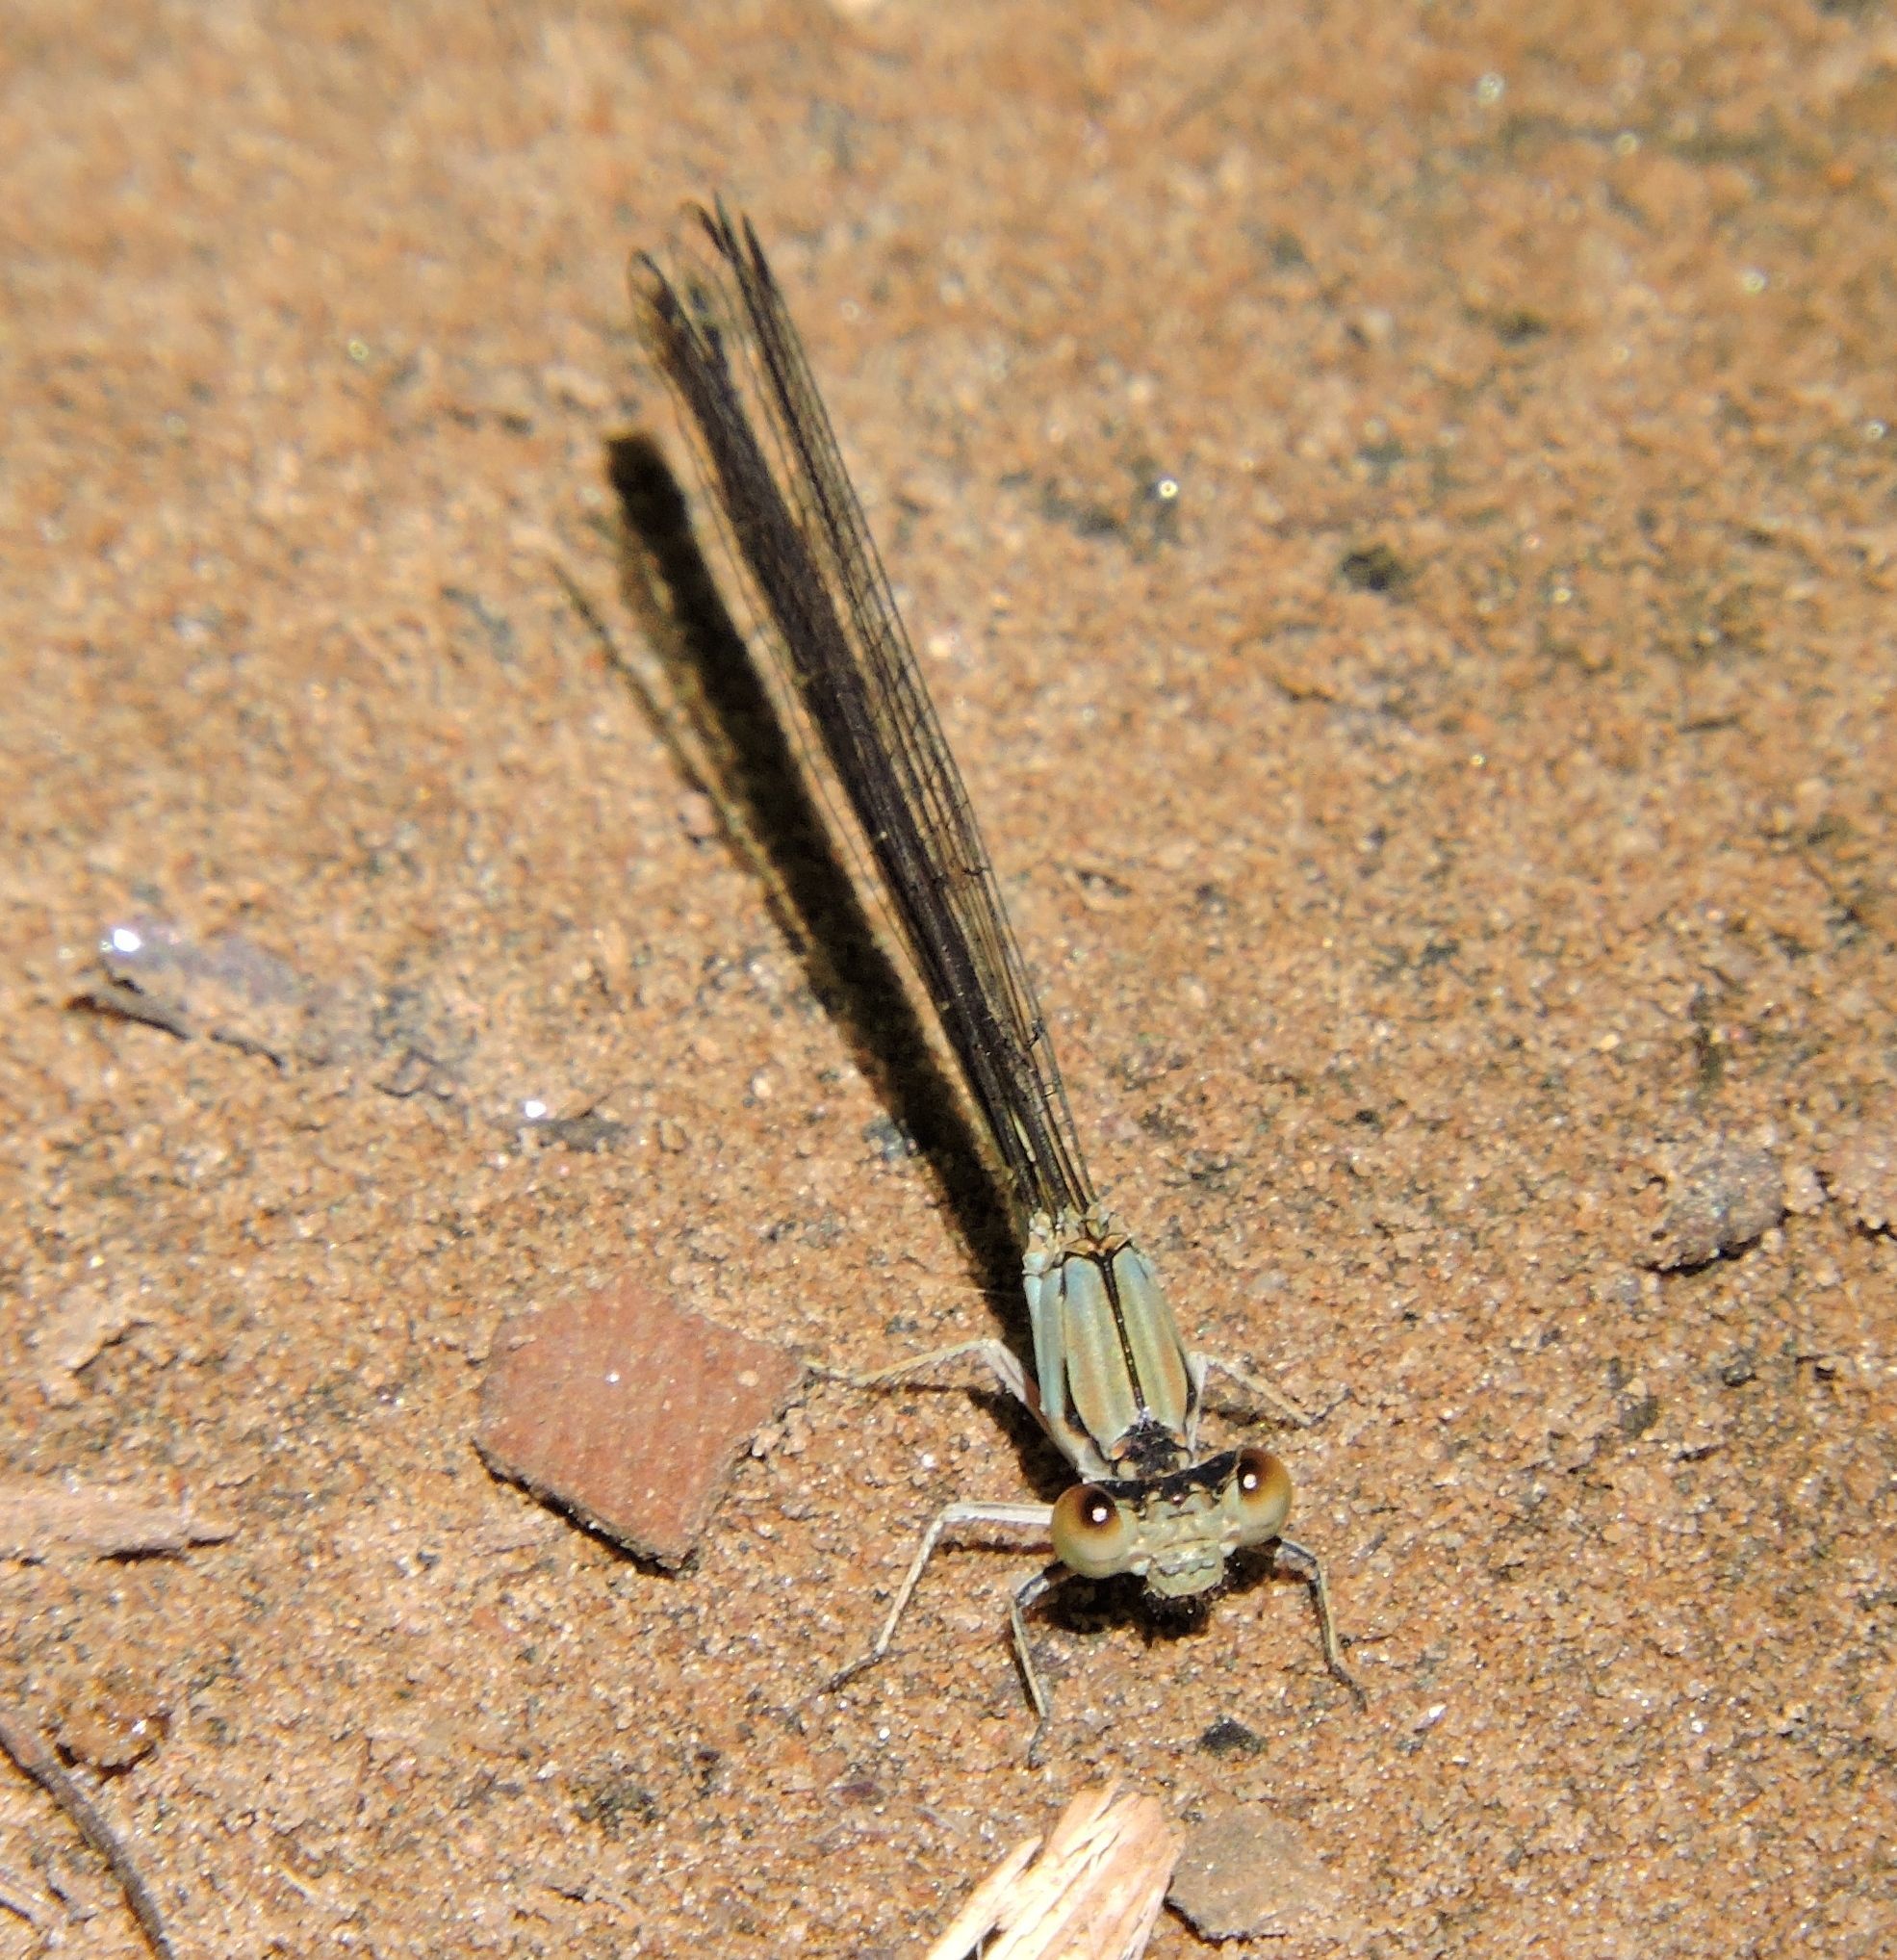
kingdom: Animalia
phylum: Arthropoda
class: Insecta
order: Odonata
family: Coenagrionidae
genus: Argia
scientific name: Argia apicalis
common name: Blue-fronted dancer
